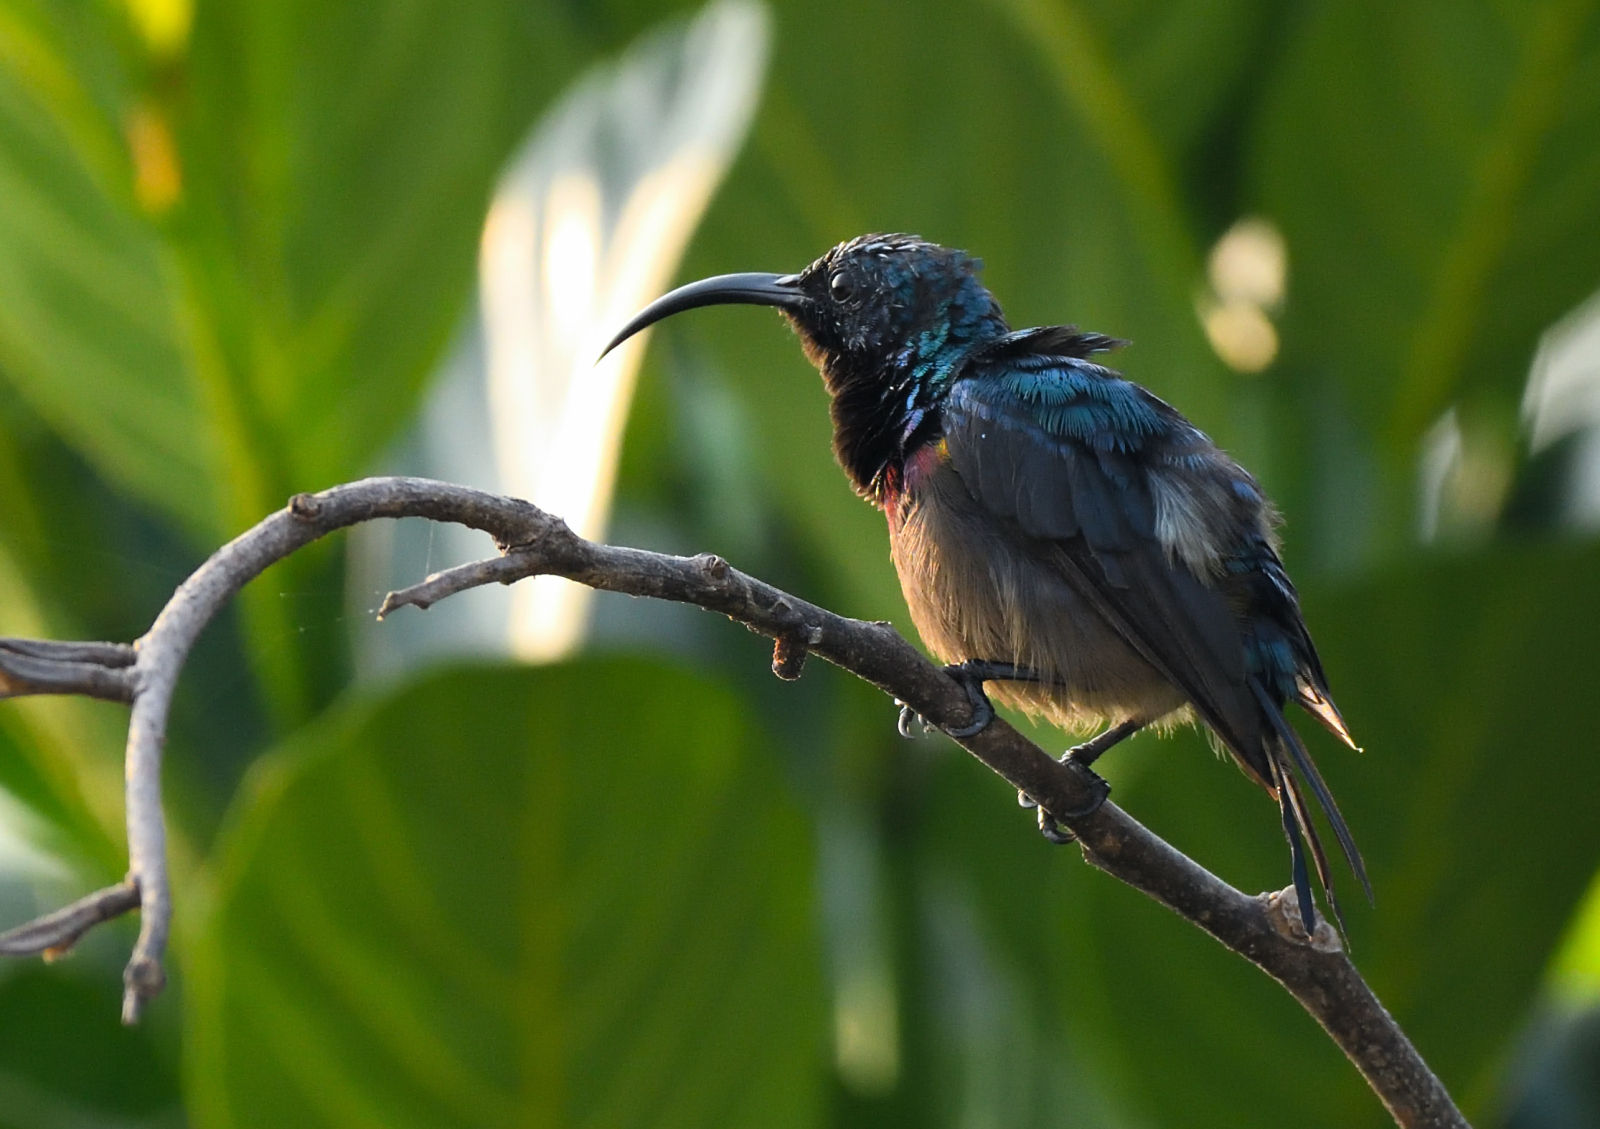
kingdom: Animalia
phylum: Chordata
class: Aves
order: Passeriformes
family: Nectariniidae
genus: Cinnyris
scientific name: Cinnyris lotenius
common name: Loten's sunbird
